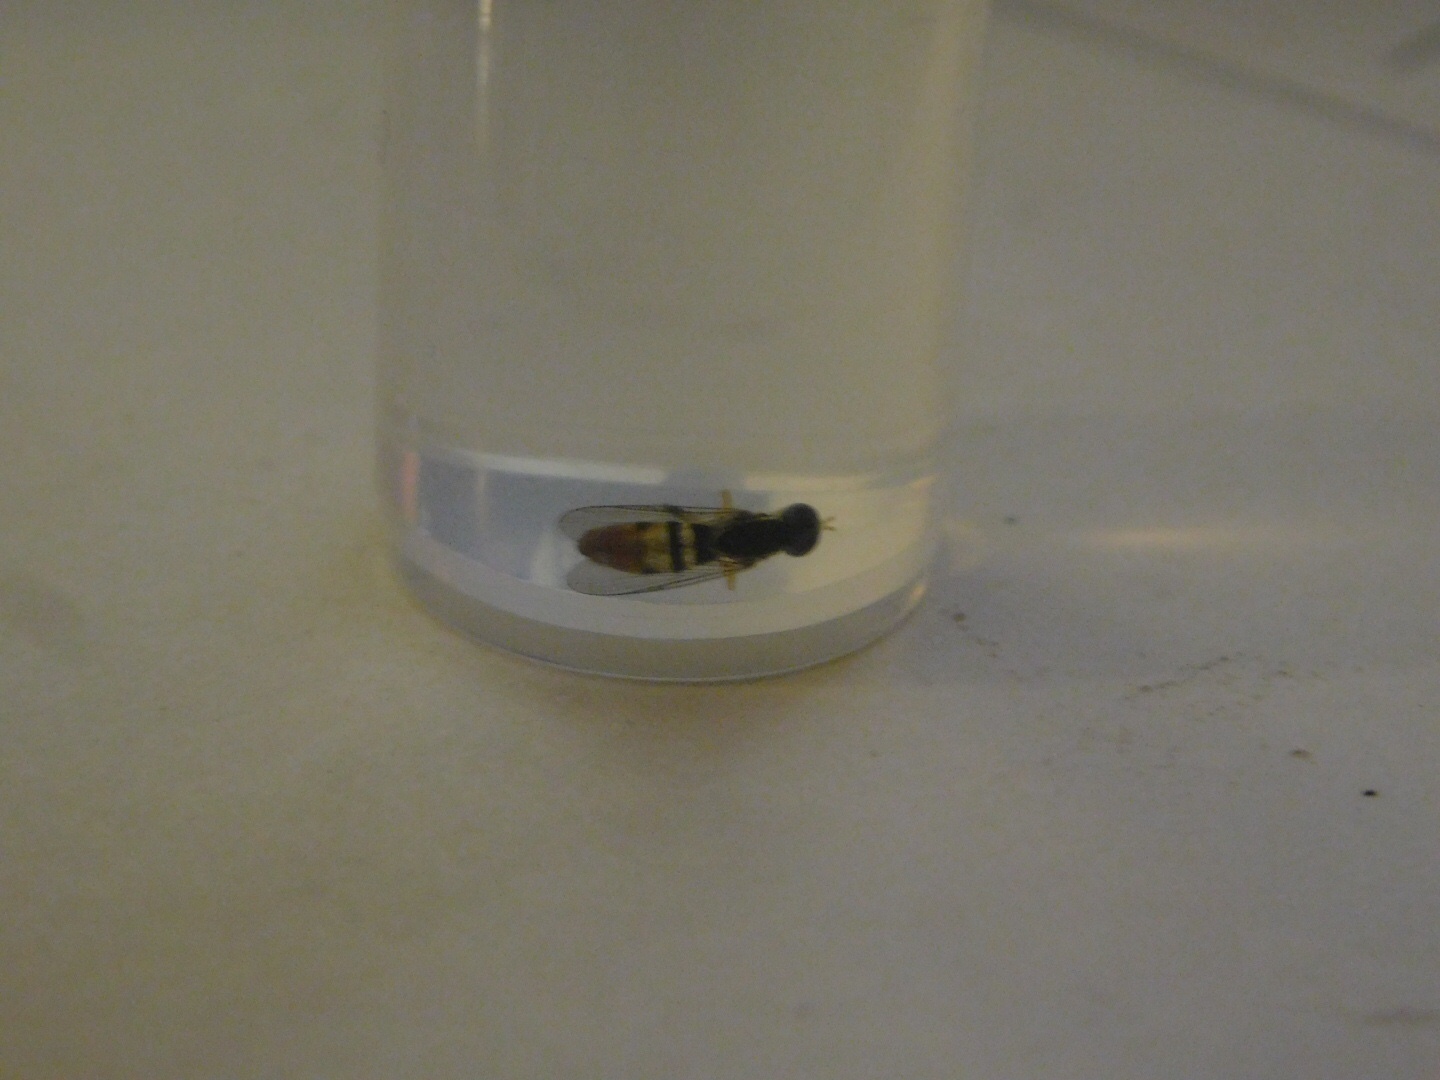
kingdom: Animalia
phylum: Arthropoda
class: Insecta
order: Diptera
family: Syrphidae
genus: Toxomerus
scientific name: Toxomerus floralis
